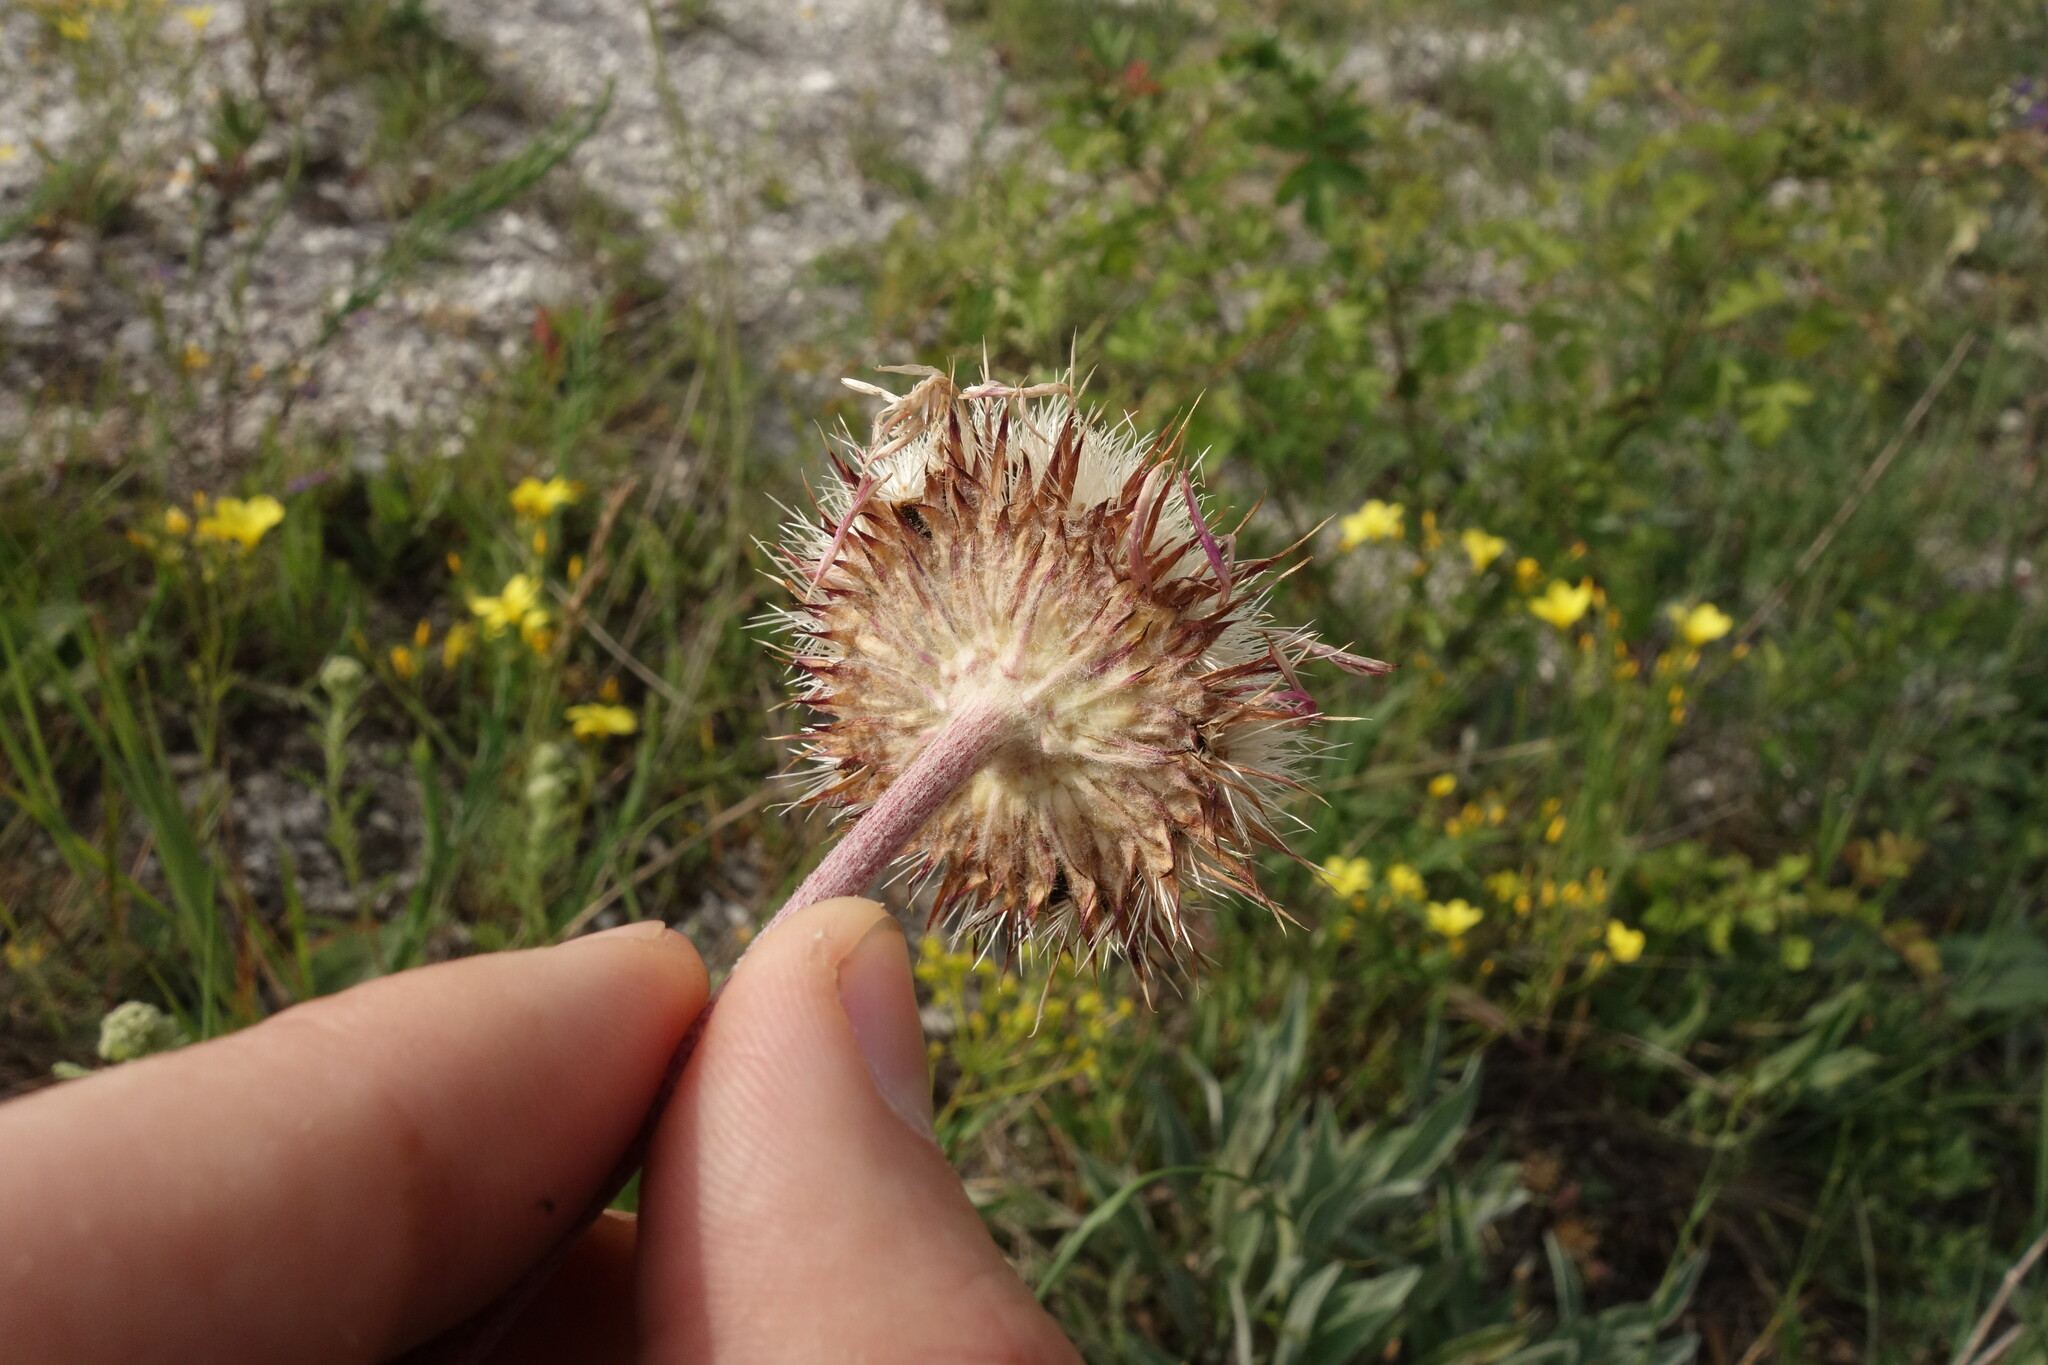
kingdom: Plantae
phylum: Tracheophyta
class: Magnoliopsida
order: Asterales
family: Asteraceae
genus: Jurinea
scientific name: Jurinea arachnoidea
